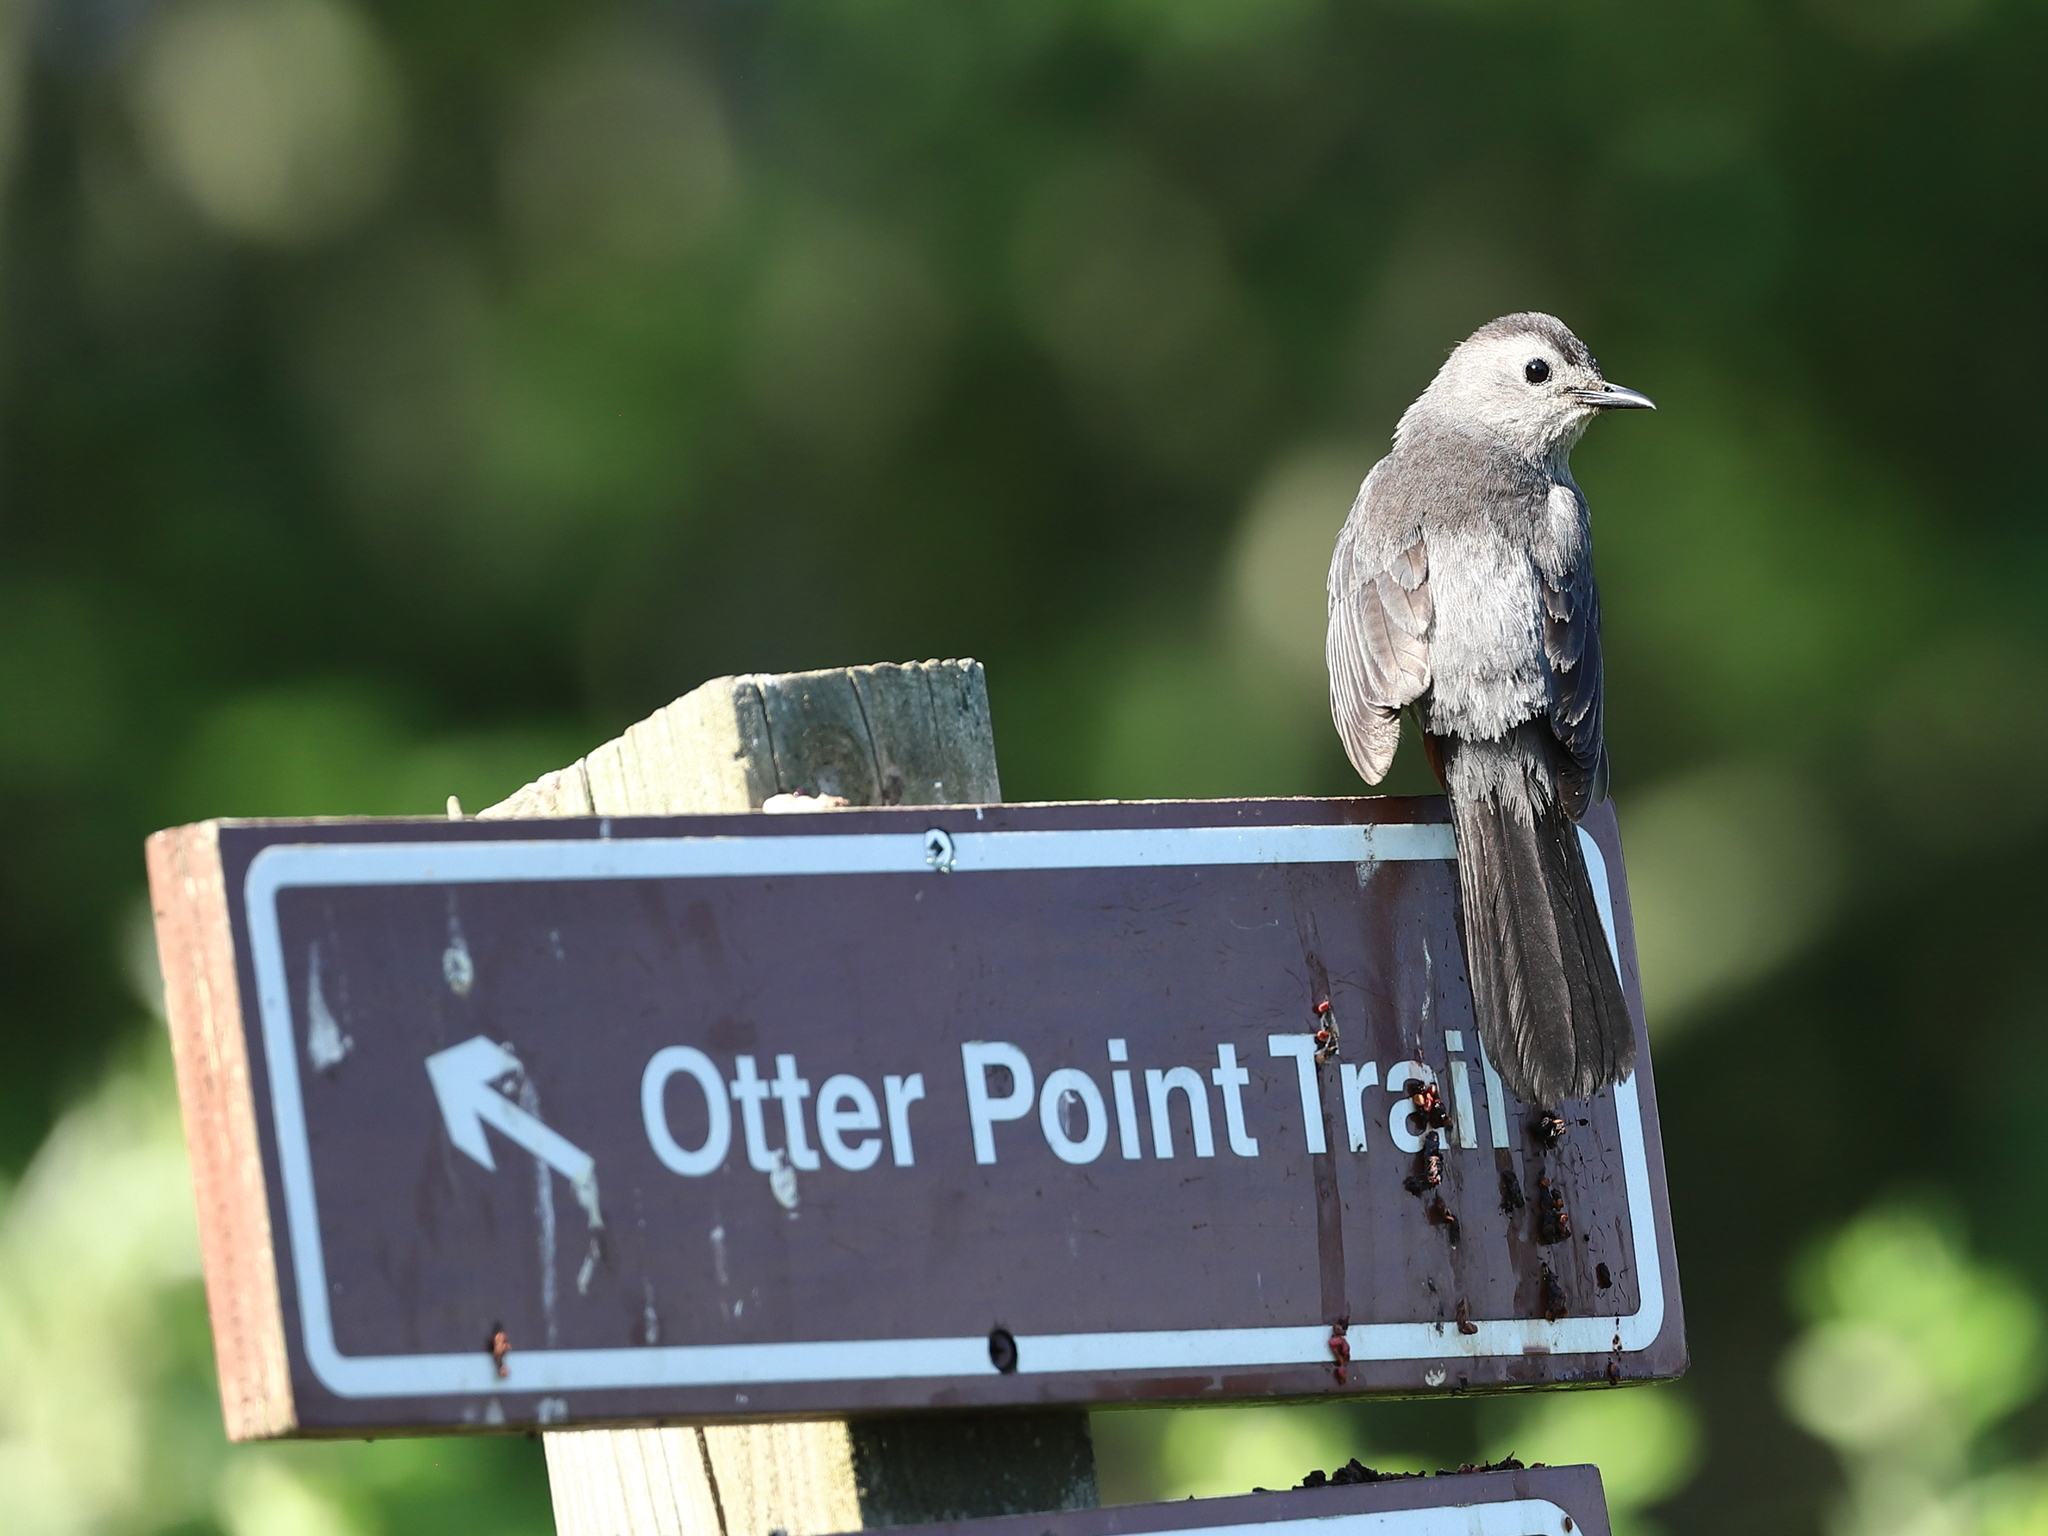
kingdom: Animalia
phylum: Chordata
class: Aves
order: Passeriformes
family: Mimidae
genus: Dumetella
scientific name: Dumetella carolinensis
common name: Gray catbird
